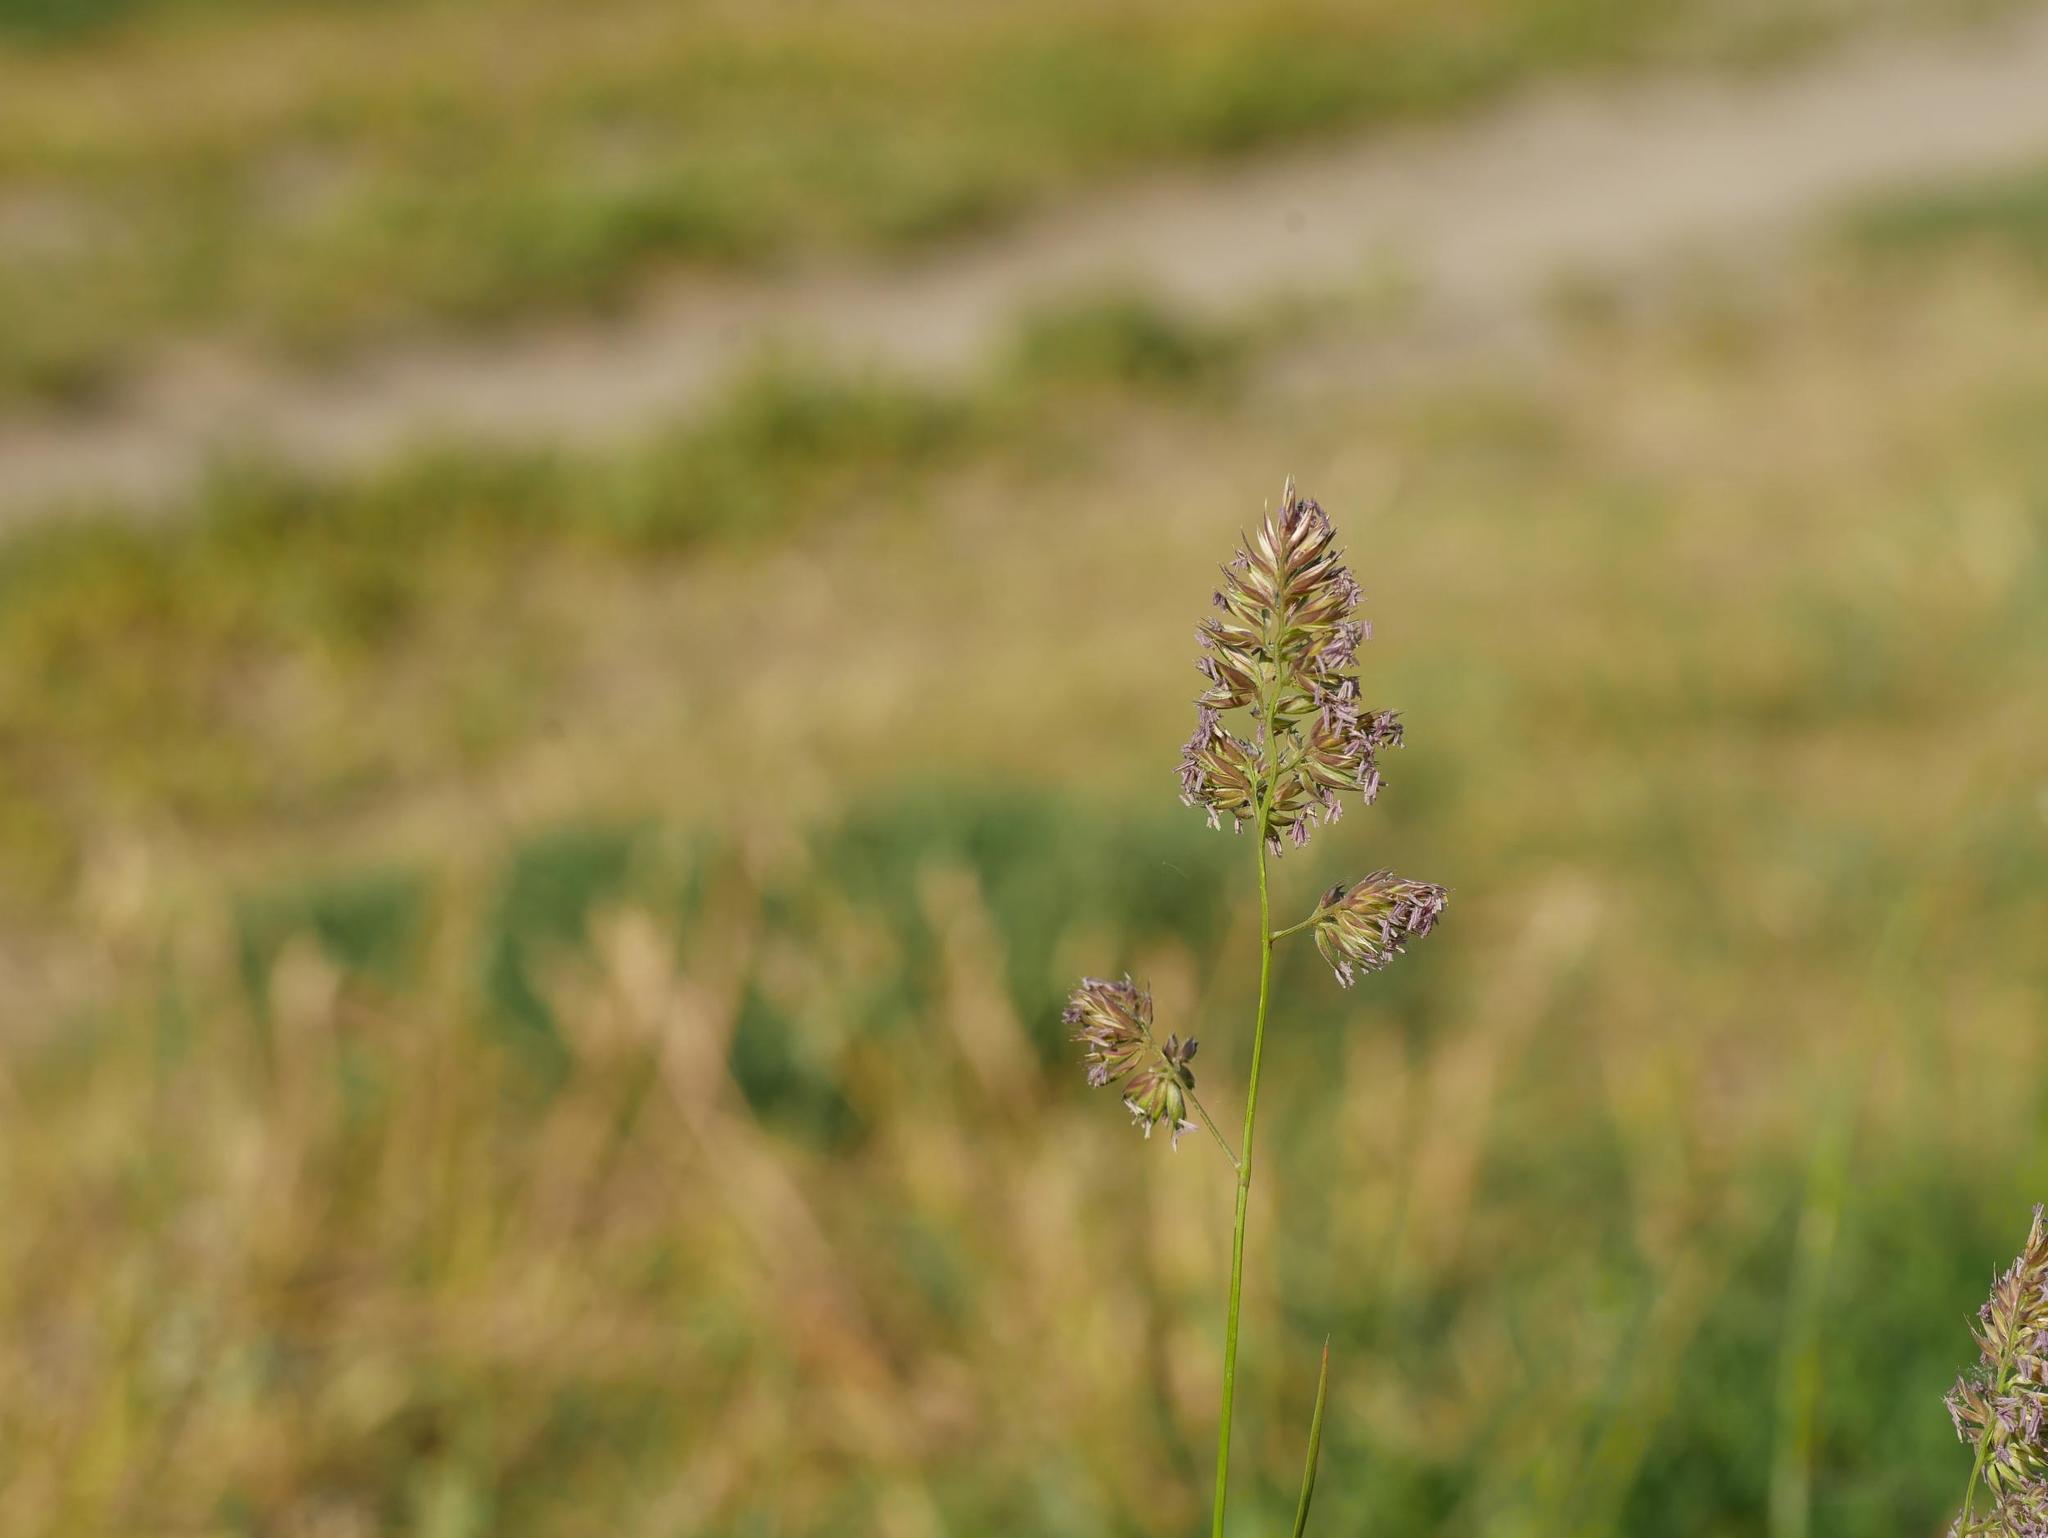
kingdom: Plantae
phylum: Tracheophyta
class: Liliopsida
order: Poales
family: Poaceae
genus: Dactylis
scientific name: Dactylis glomerata
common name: Orchardgrass
